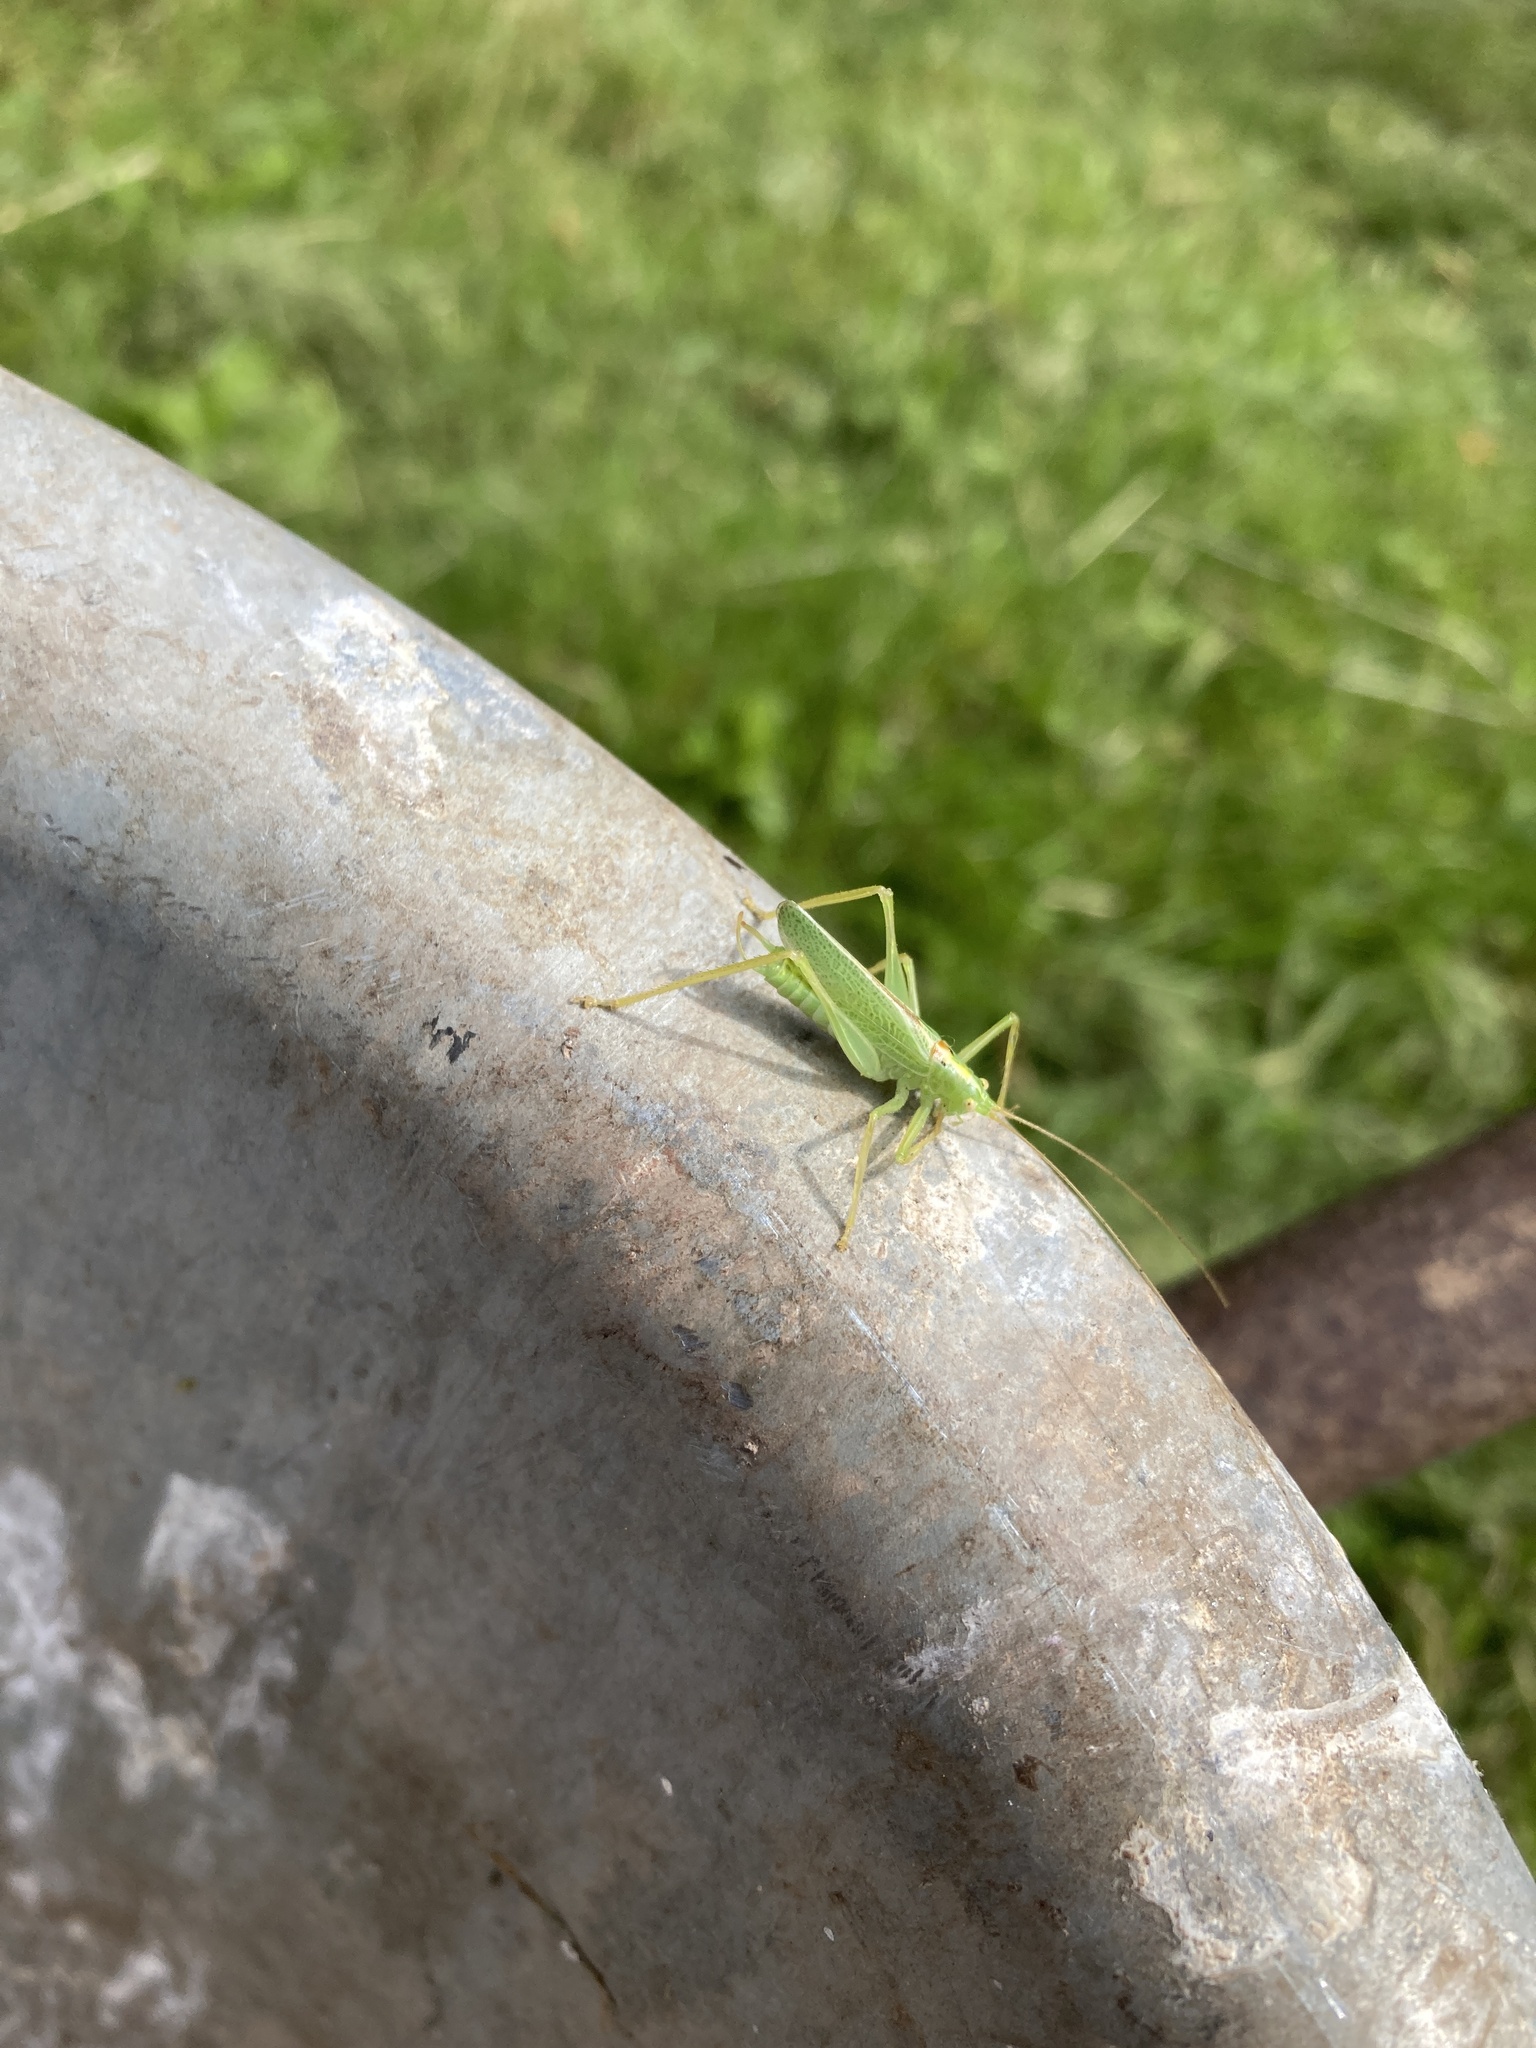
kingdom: Animalia
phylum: Arthropoda
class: Insecta
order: Orthoptera
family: Tettigoniidae
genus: Meconema
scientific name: Meconema thalassinum
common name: Oak bush-cricket
